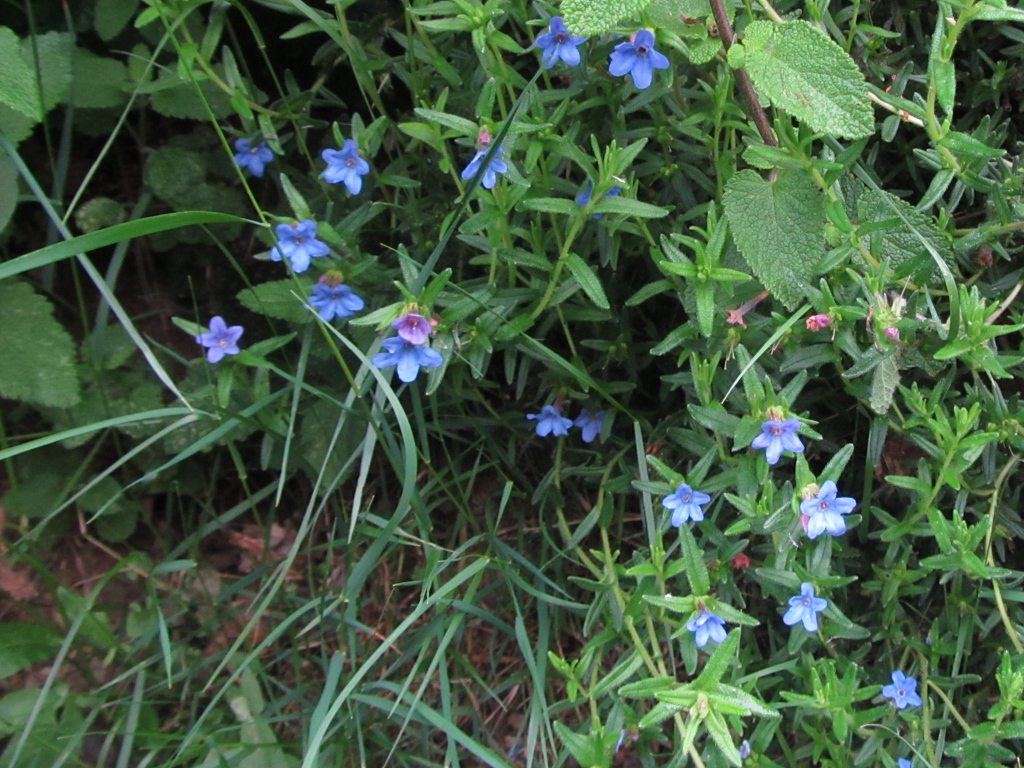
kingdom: Plantae
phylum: Tracheophyta
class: Magnoliopsida
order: Boraginales
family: Boraginaceae
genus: Glandora
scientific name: Glandora prostrata
